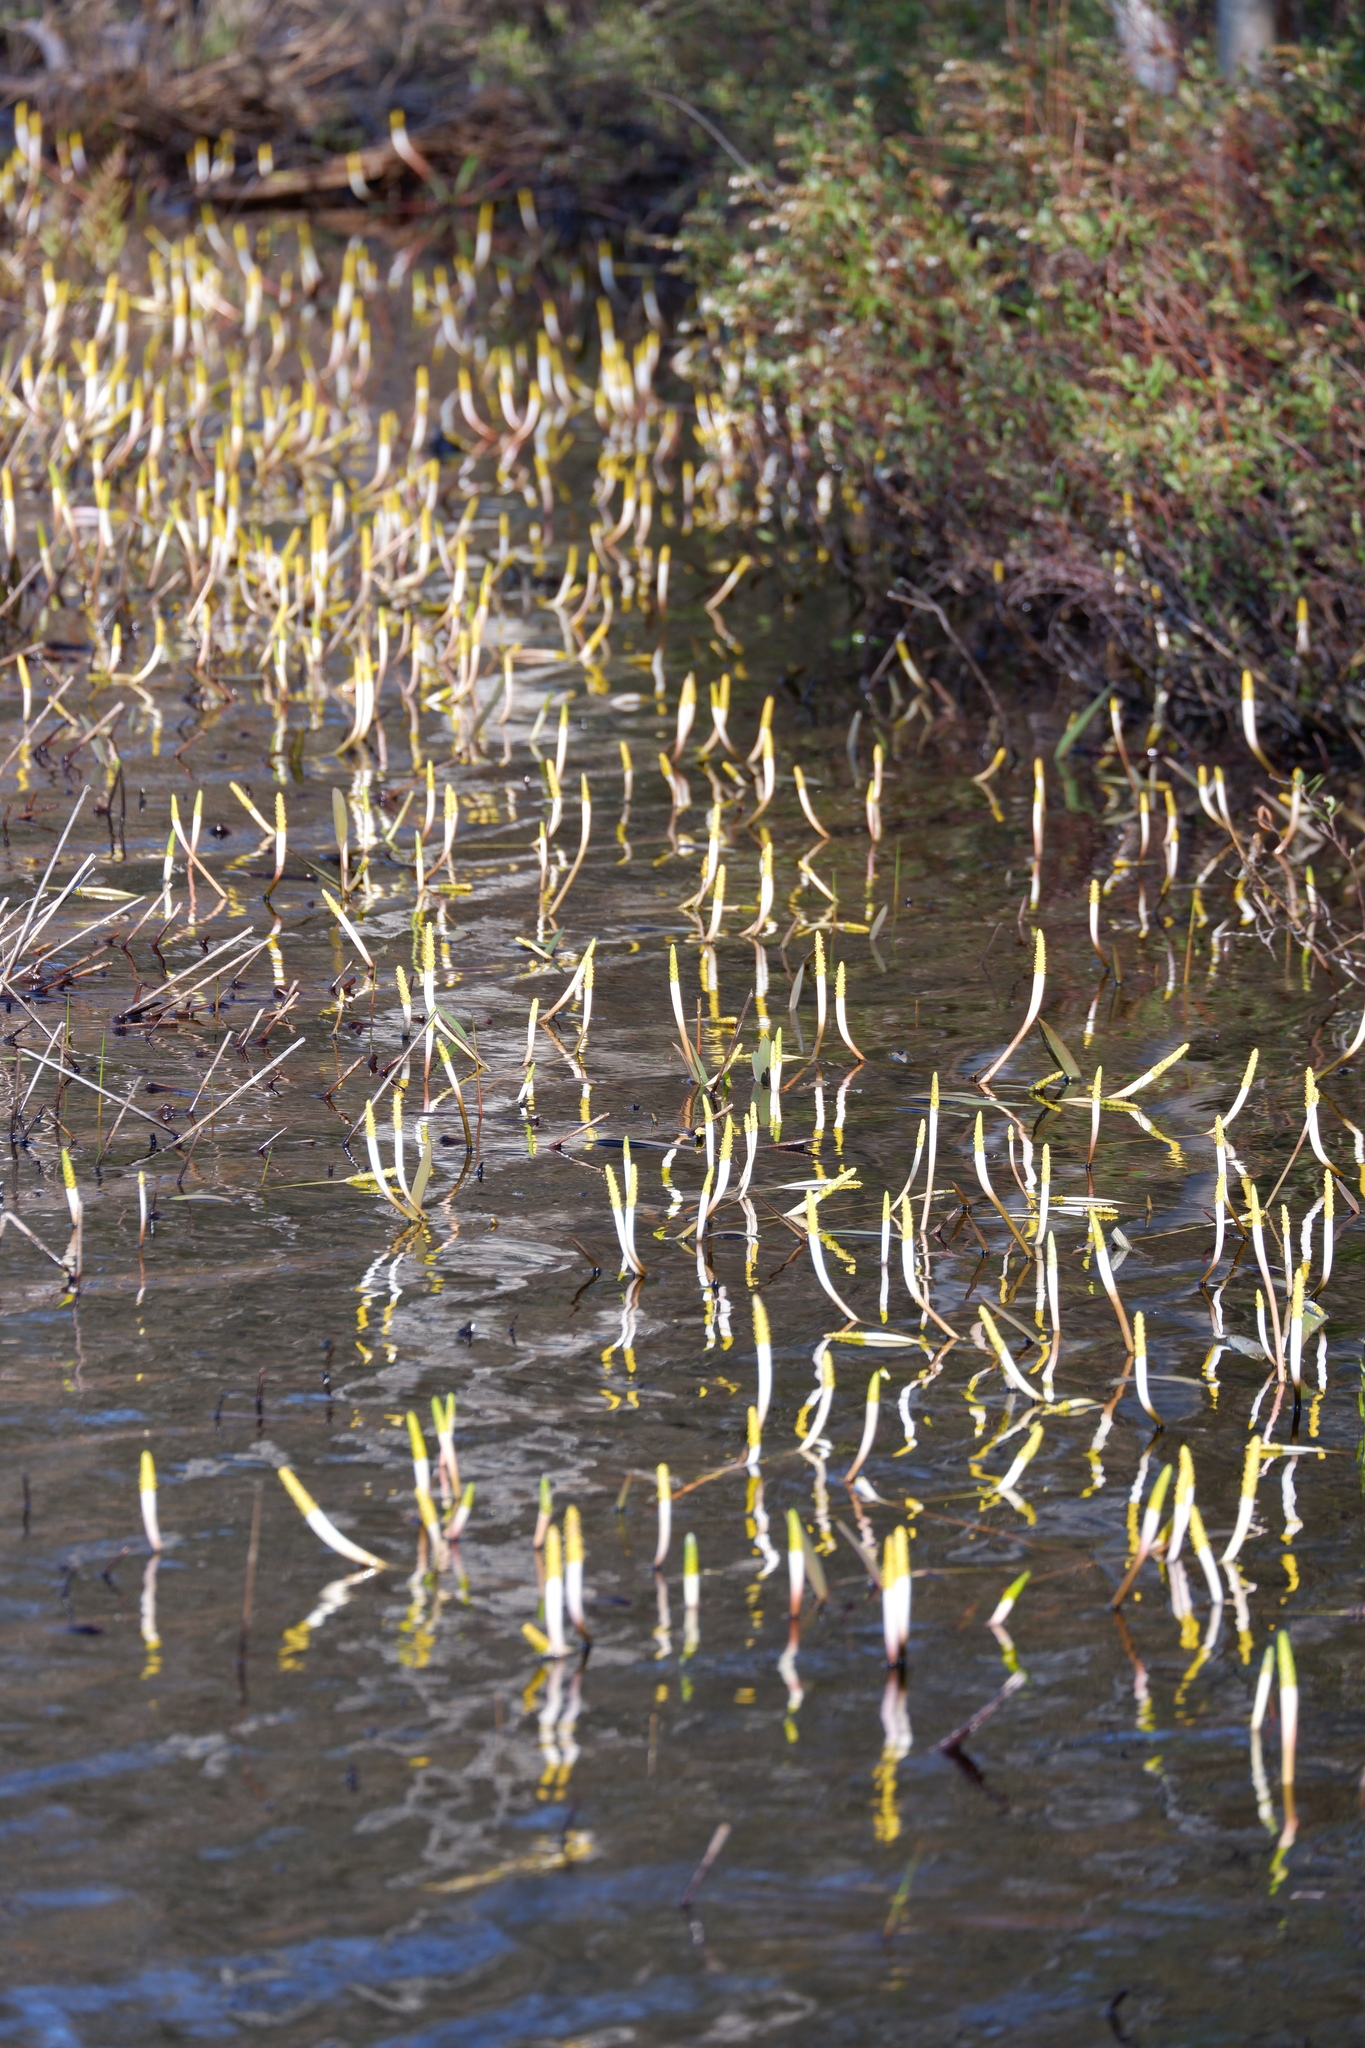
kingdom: Plantae
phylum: Tracheophyta
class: Liliopsida
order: Alismatales
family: Araceae
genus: Orontium
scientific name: Orontium aquaticum
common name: Golden-club
